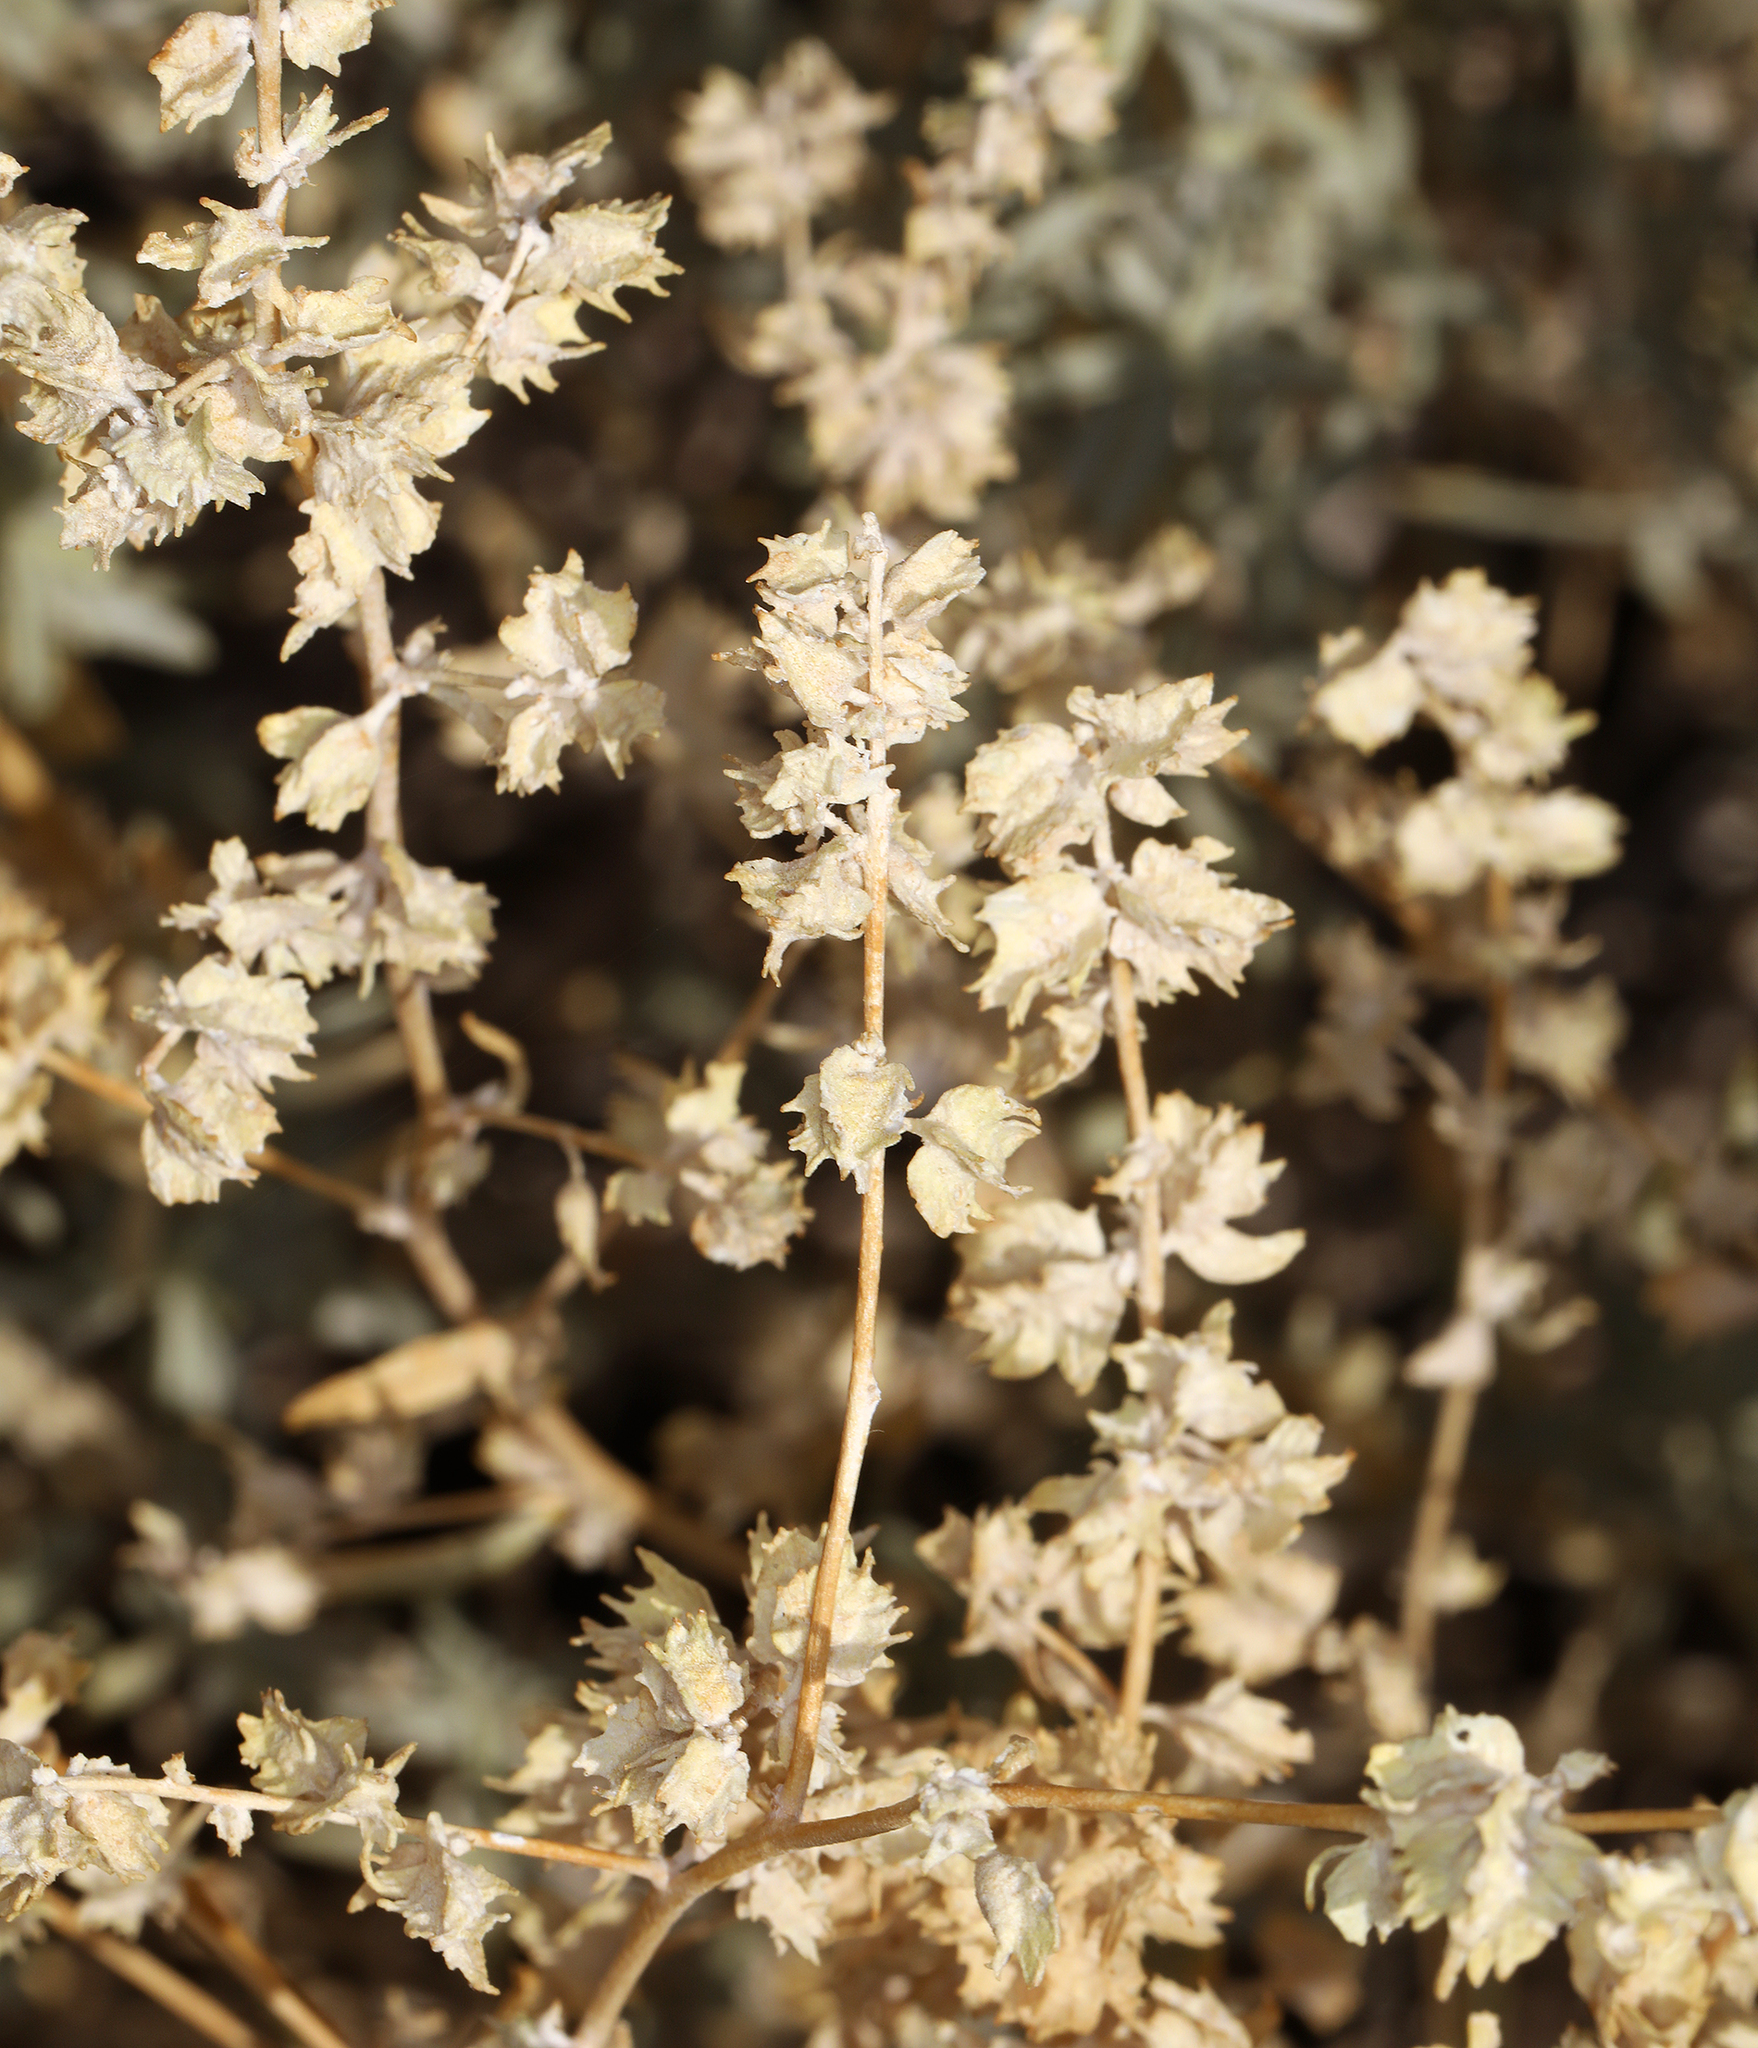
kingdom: Plantae
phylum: Tracheophyta
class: Magnoliopsida
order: Caryophyllales
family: Amaranthaceae
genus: Atriplex
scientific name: Atriplex canescens
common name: Four-wing saltbush
